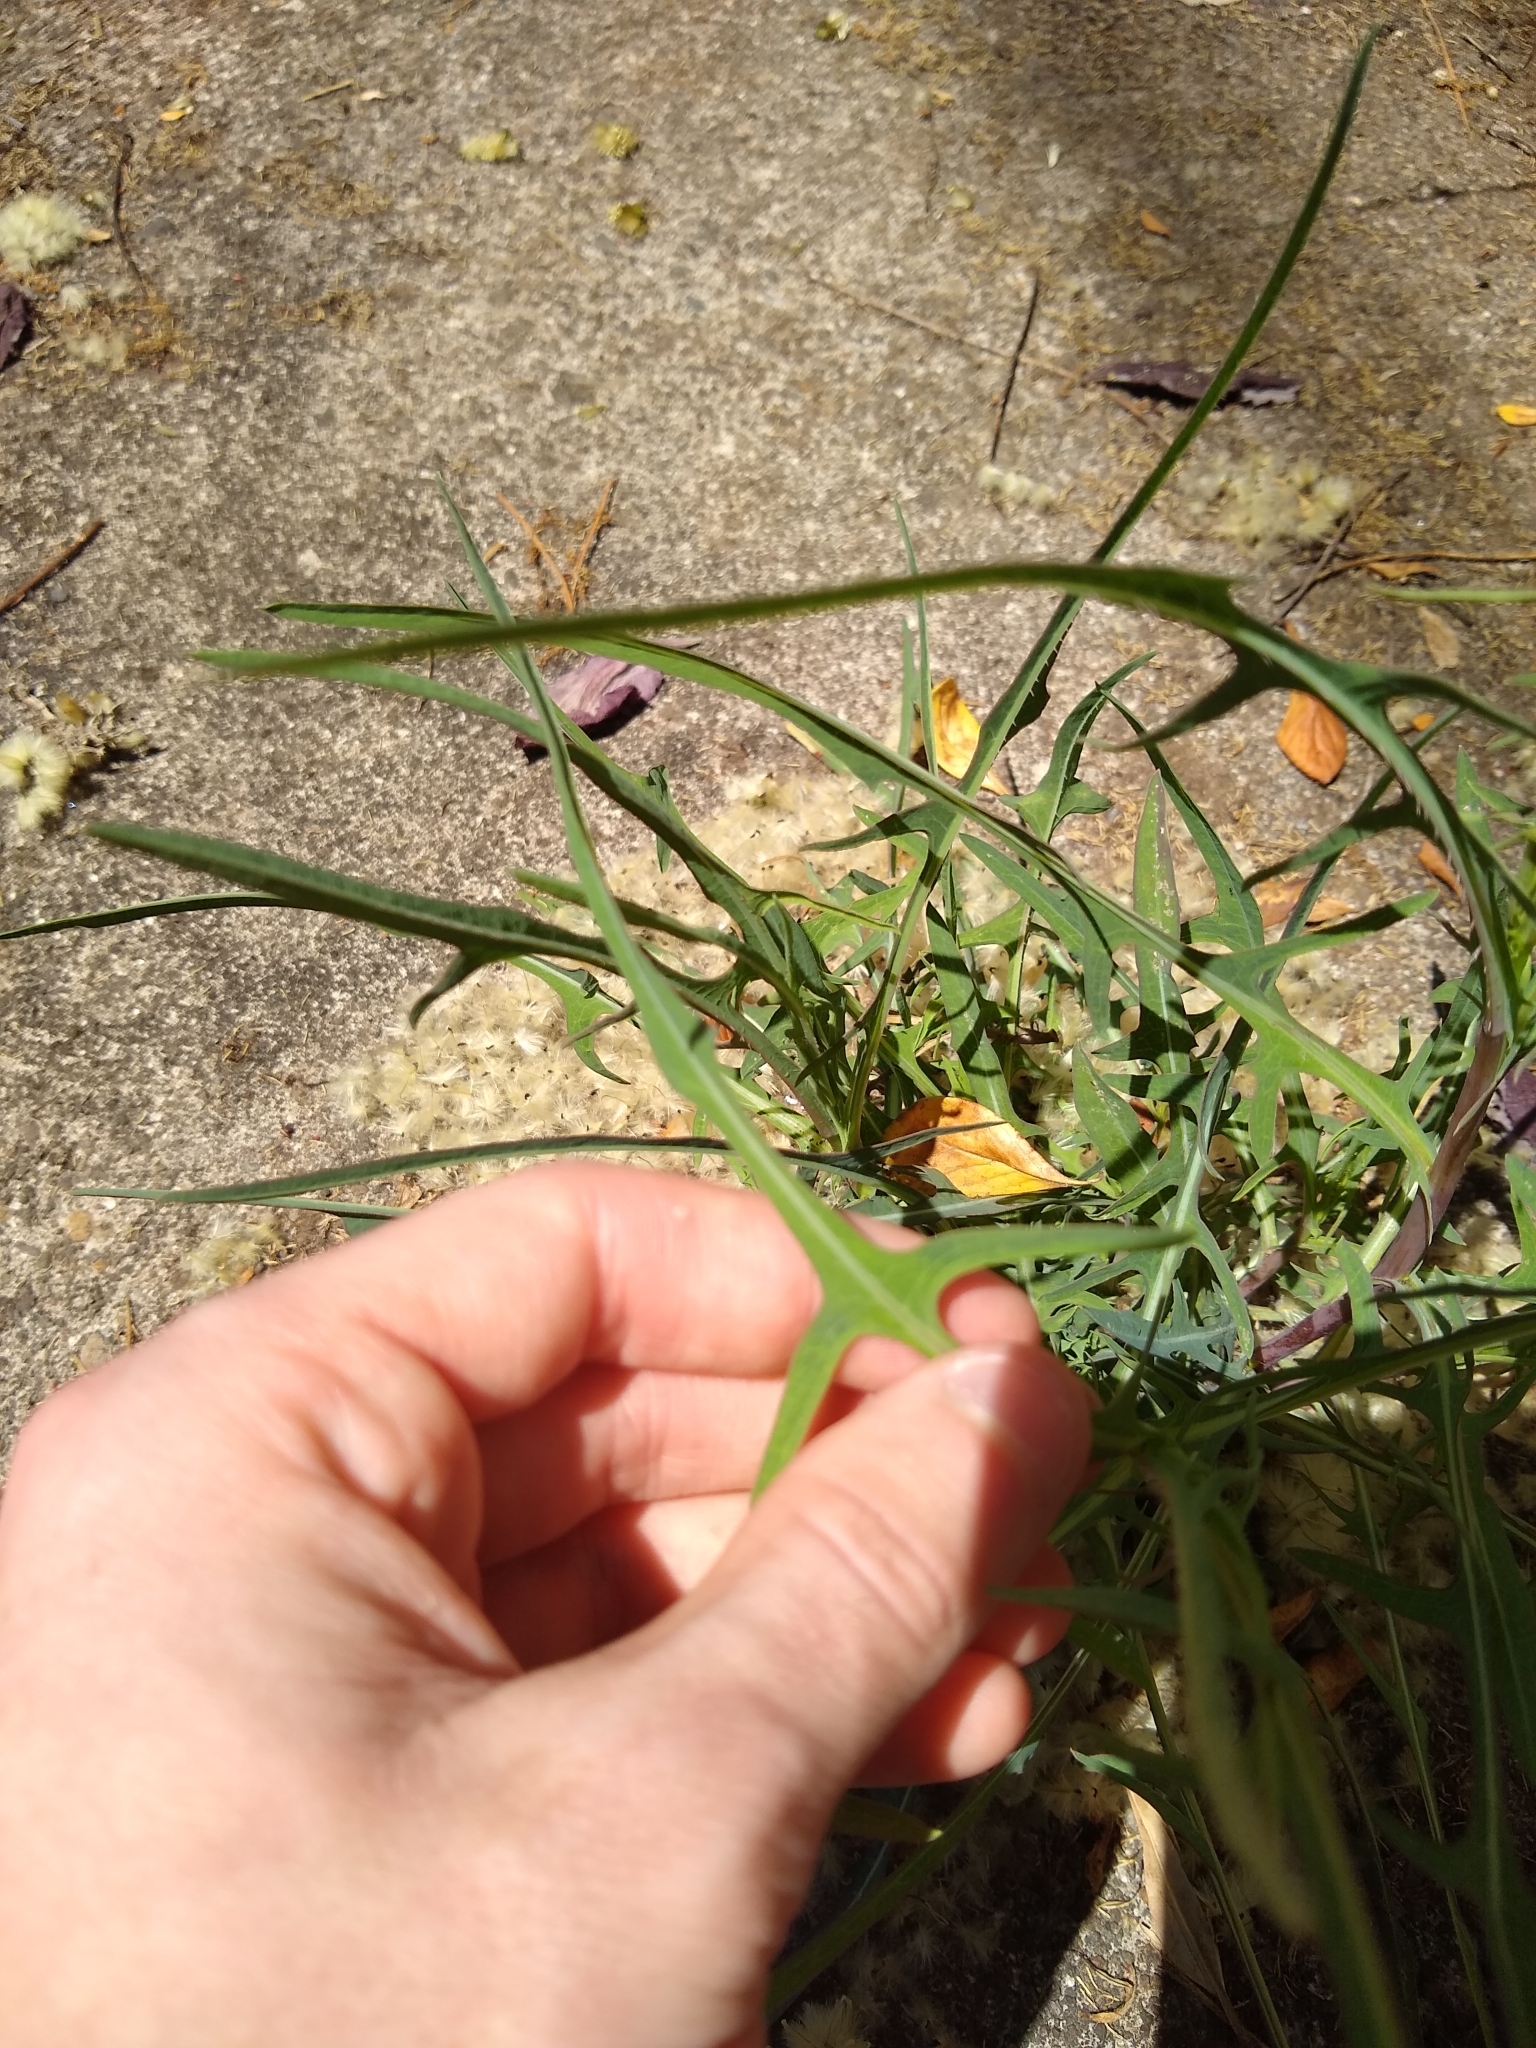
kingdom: Plantae
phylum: Tracheophyta
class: Magnoliopsida
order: Asterales
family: Asteraceae
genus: Lactuca
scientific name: Lactuca saligna
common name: Wild lettuce
